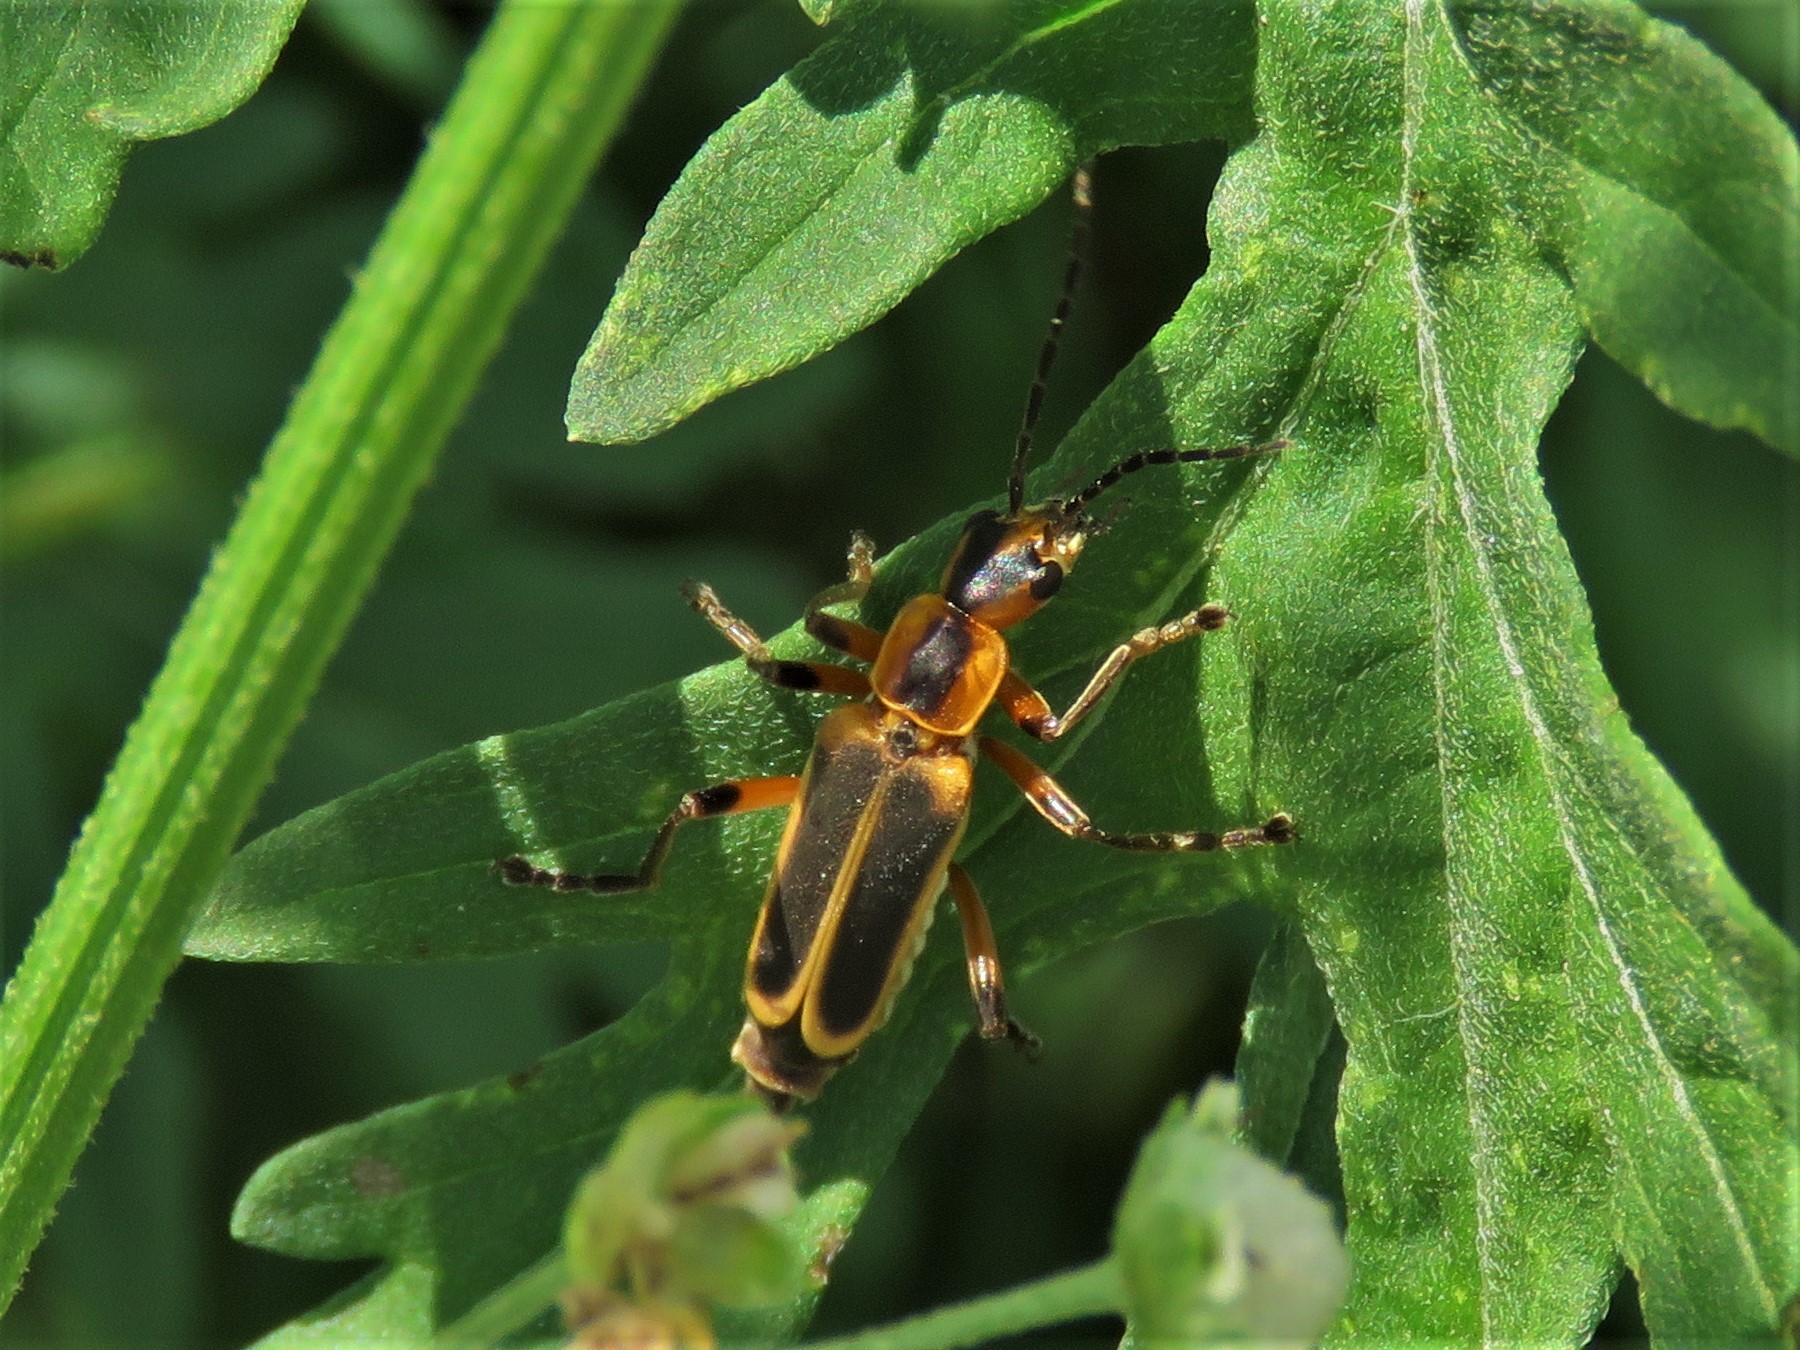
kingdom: Animalia
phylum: Arthropoda
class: Insecta
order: Coleoptera
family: Cantharidae
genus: Chauliognathus
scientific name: Chauliognathus marginatus
